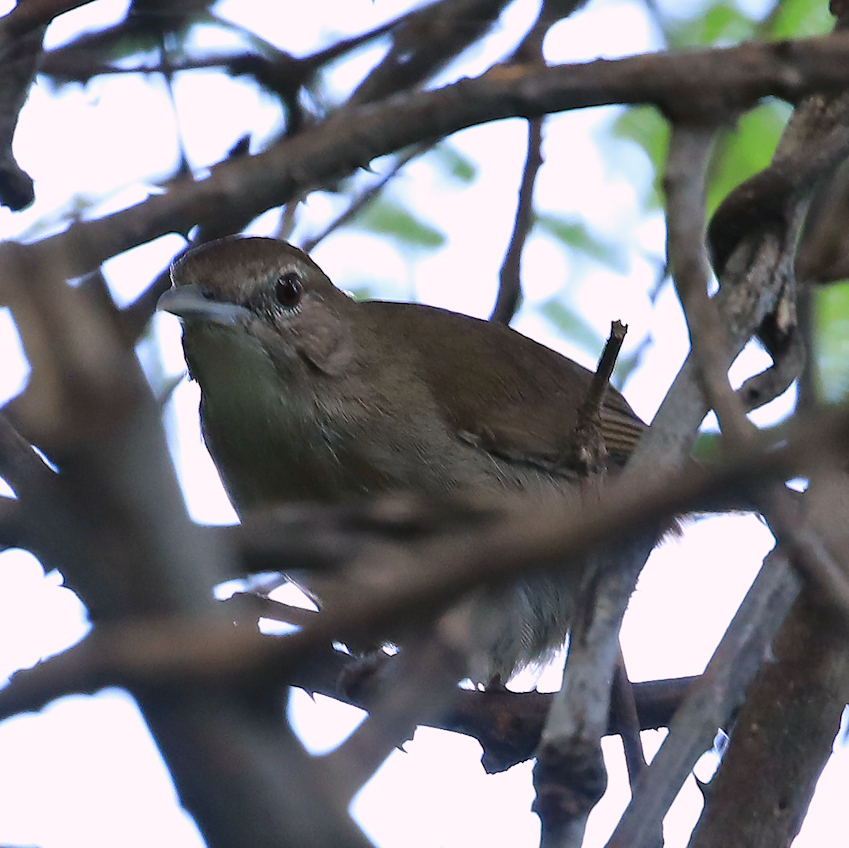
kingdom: Animalia
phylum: Chordata
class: Aves
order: Passeriformes
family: Pycnonotidae
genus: Phyllastrephus
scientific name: Phyllastrephus terrestris
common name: Terrestrial brownbul
